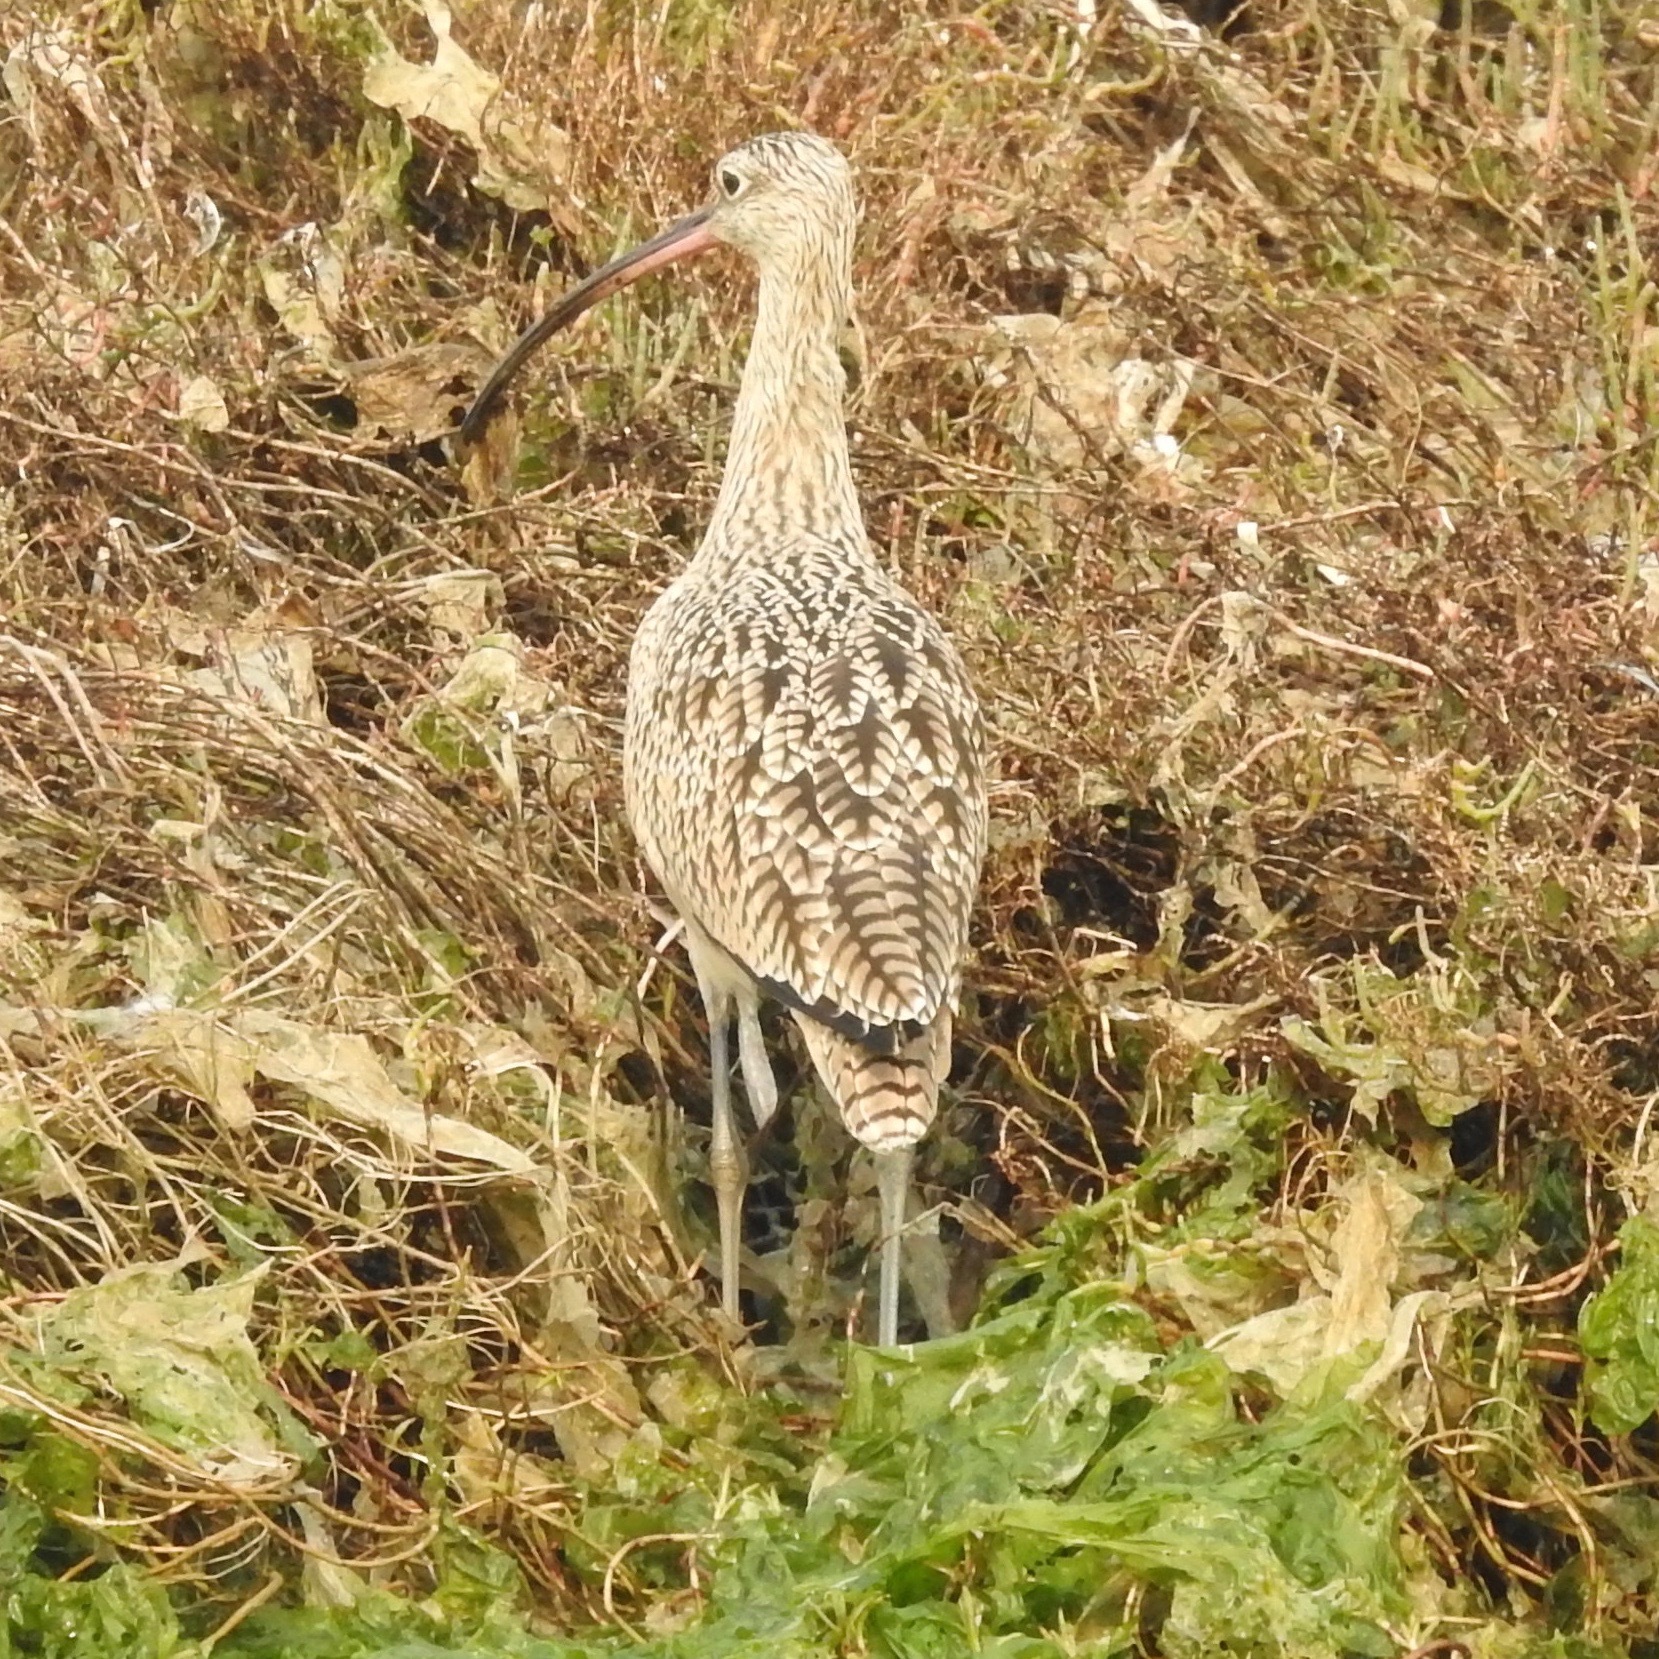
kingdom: Animalia
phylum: Chordata
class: Aves
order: Charadriiformes
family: Scolopacidae
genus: Numenius
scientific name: Numenius americanus
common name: Long-billed curlew
